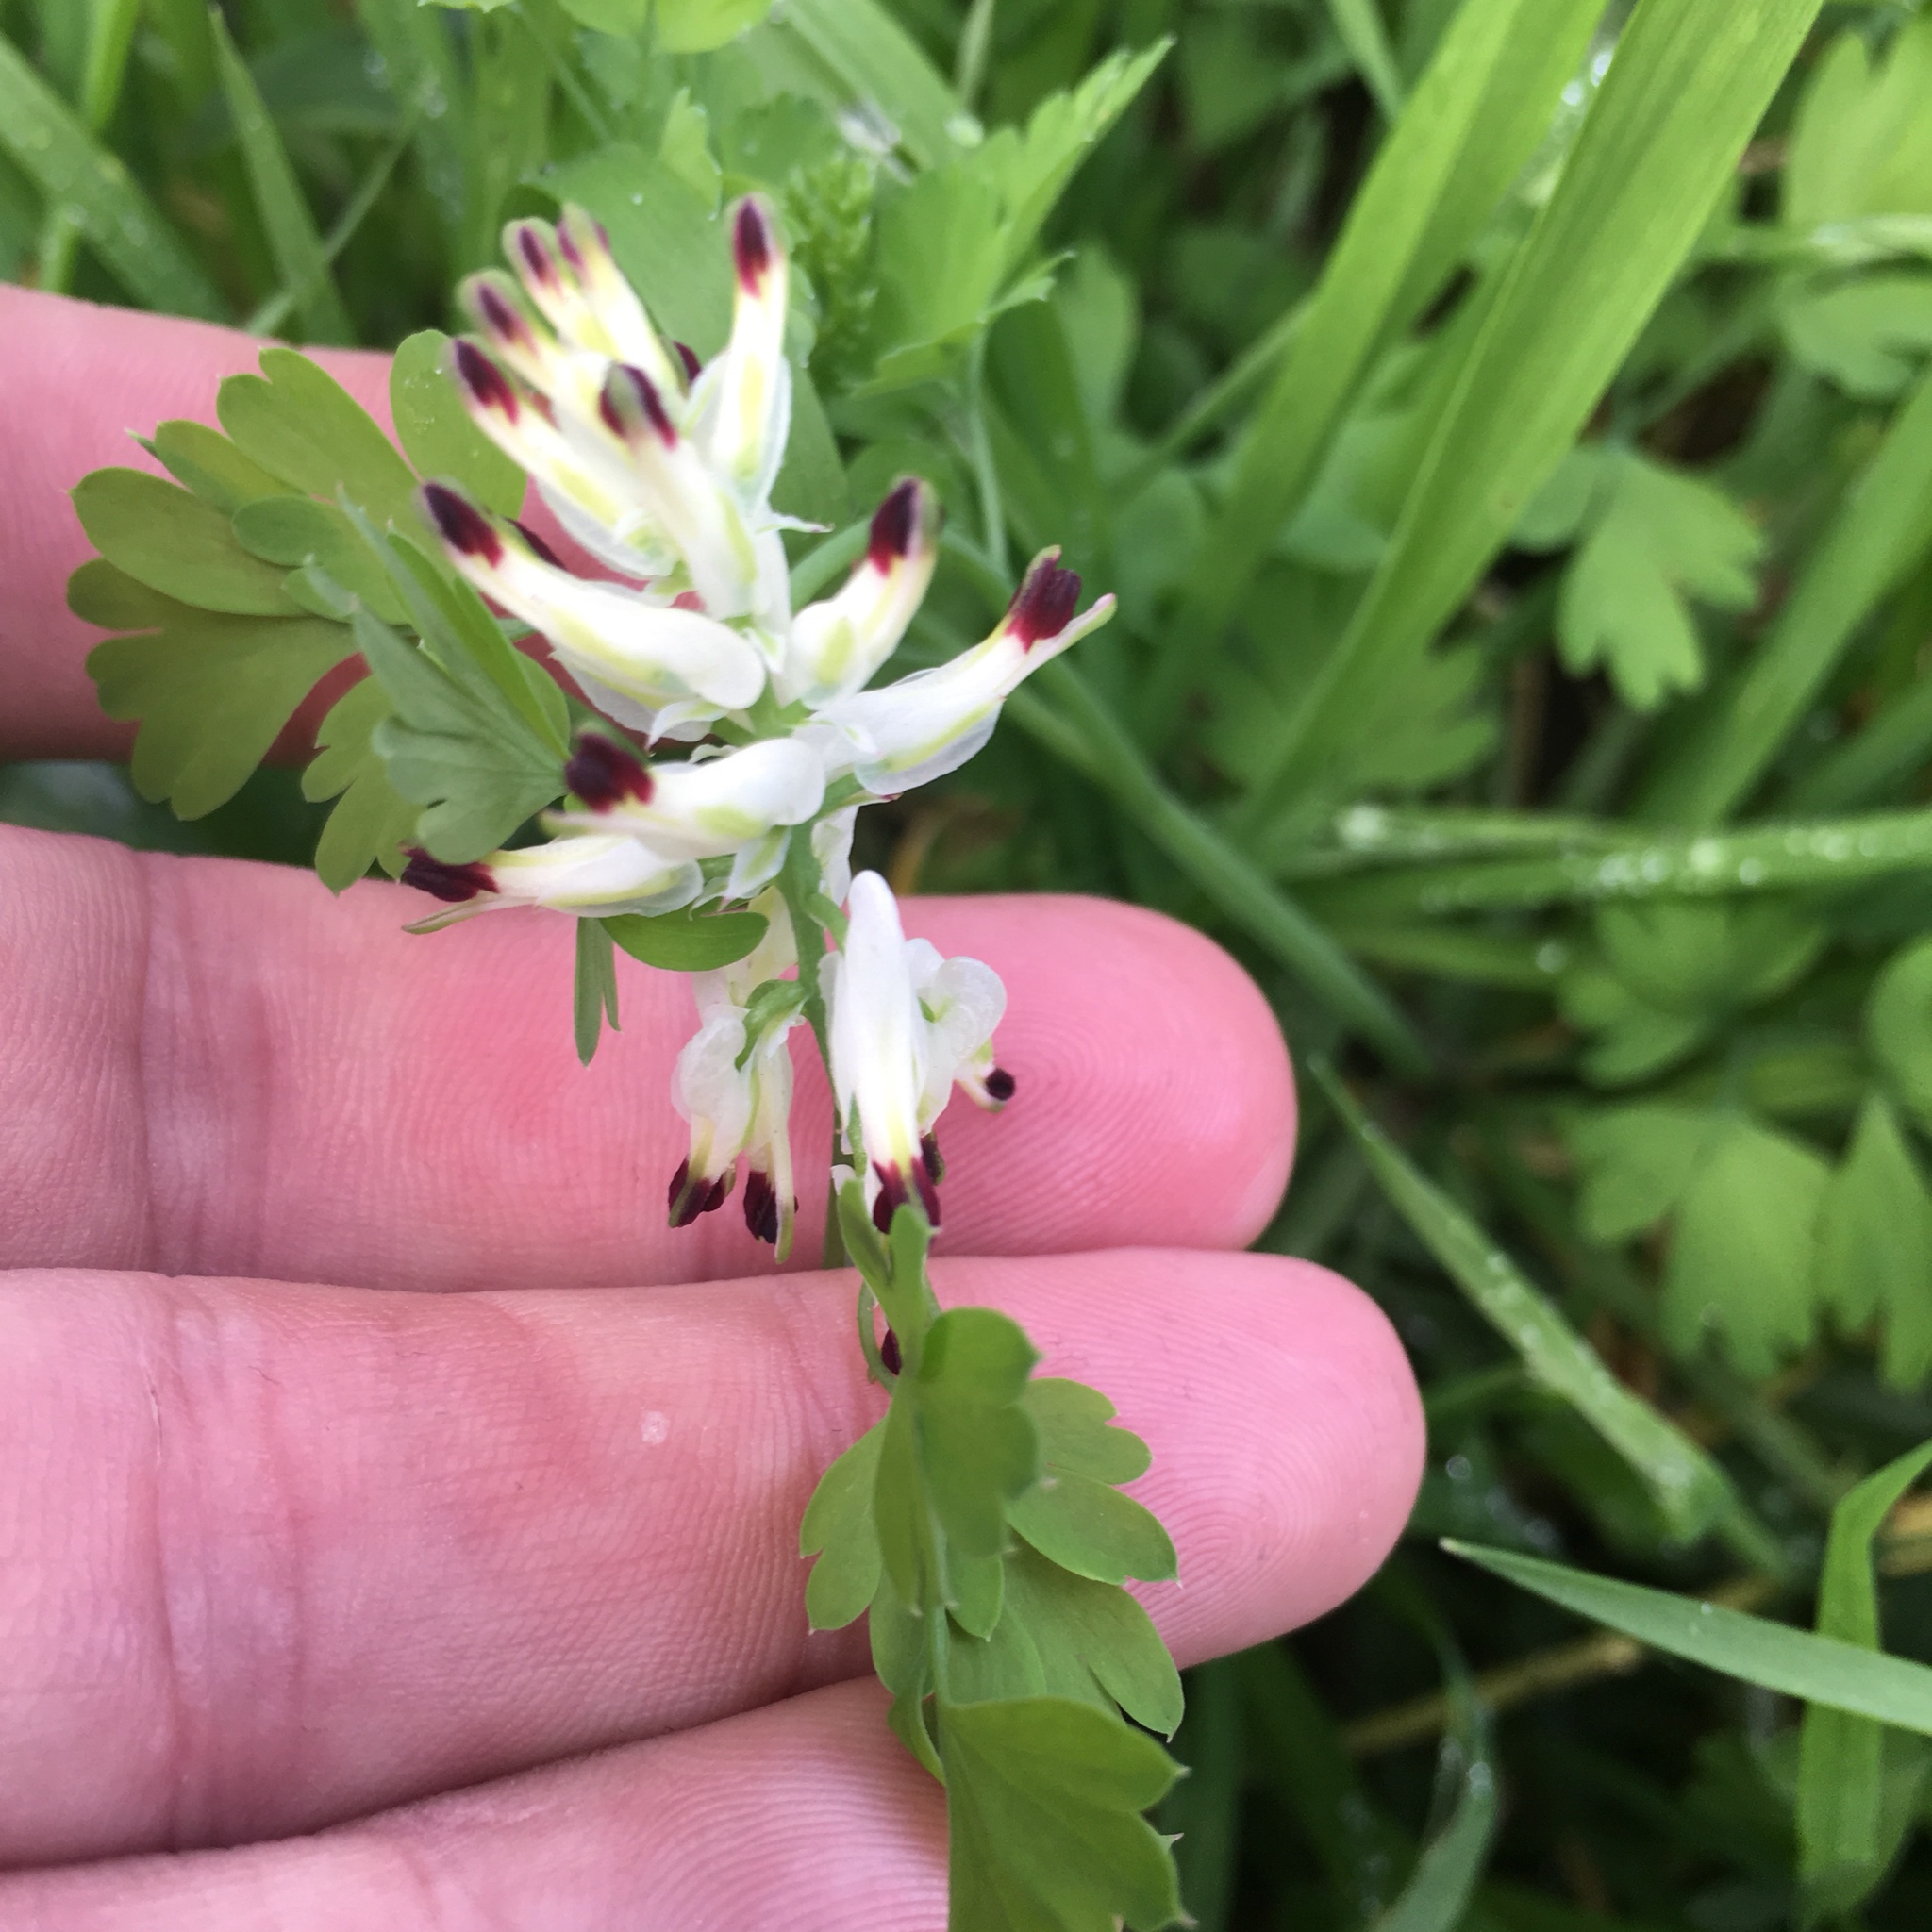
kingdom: Plantae
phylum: Tracheophyta
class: Magnoliopsida
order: Ranunculales
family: Papaveraceae
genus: Fumaria
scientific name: Fumaria capreolata
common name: White ramping-fumitory
